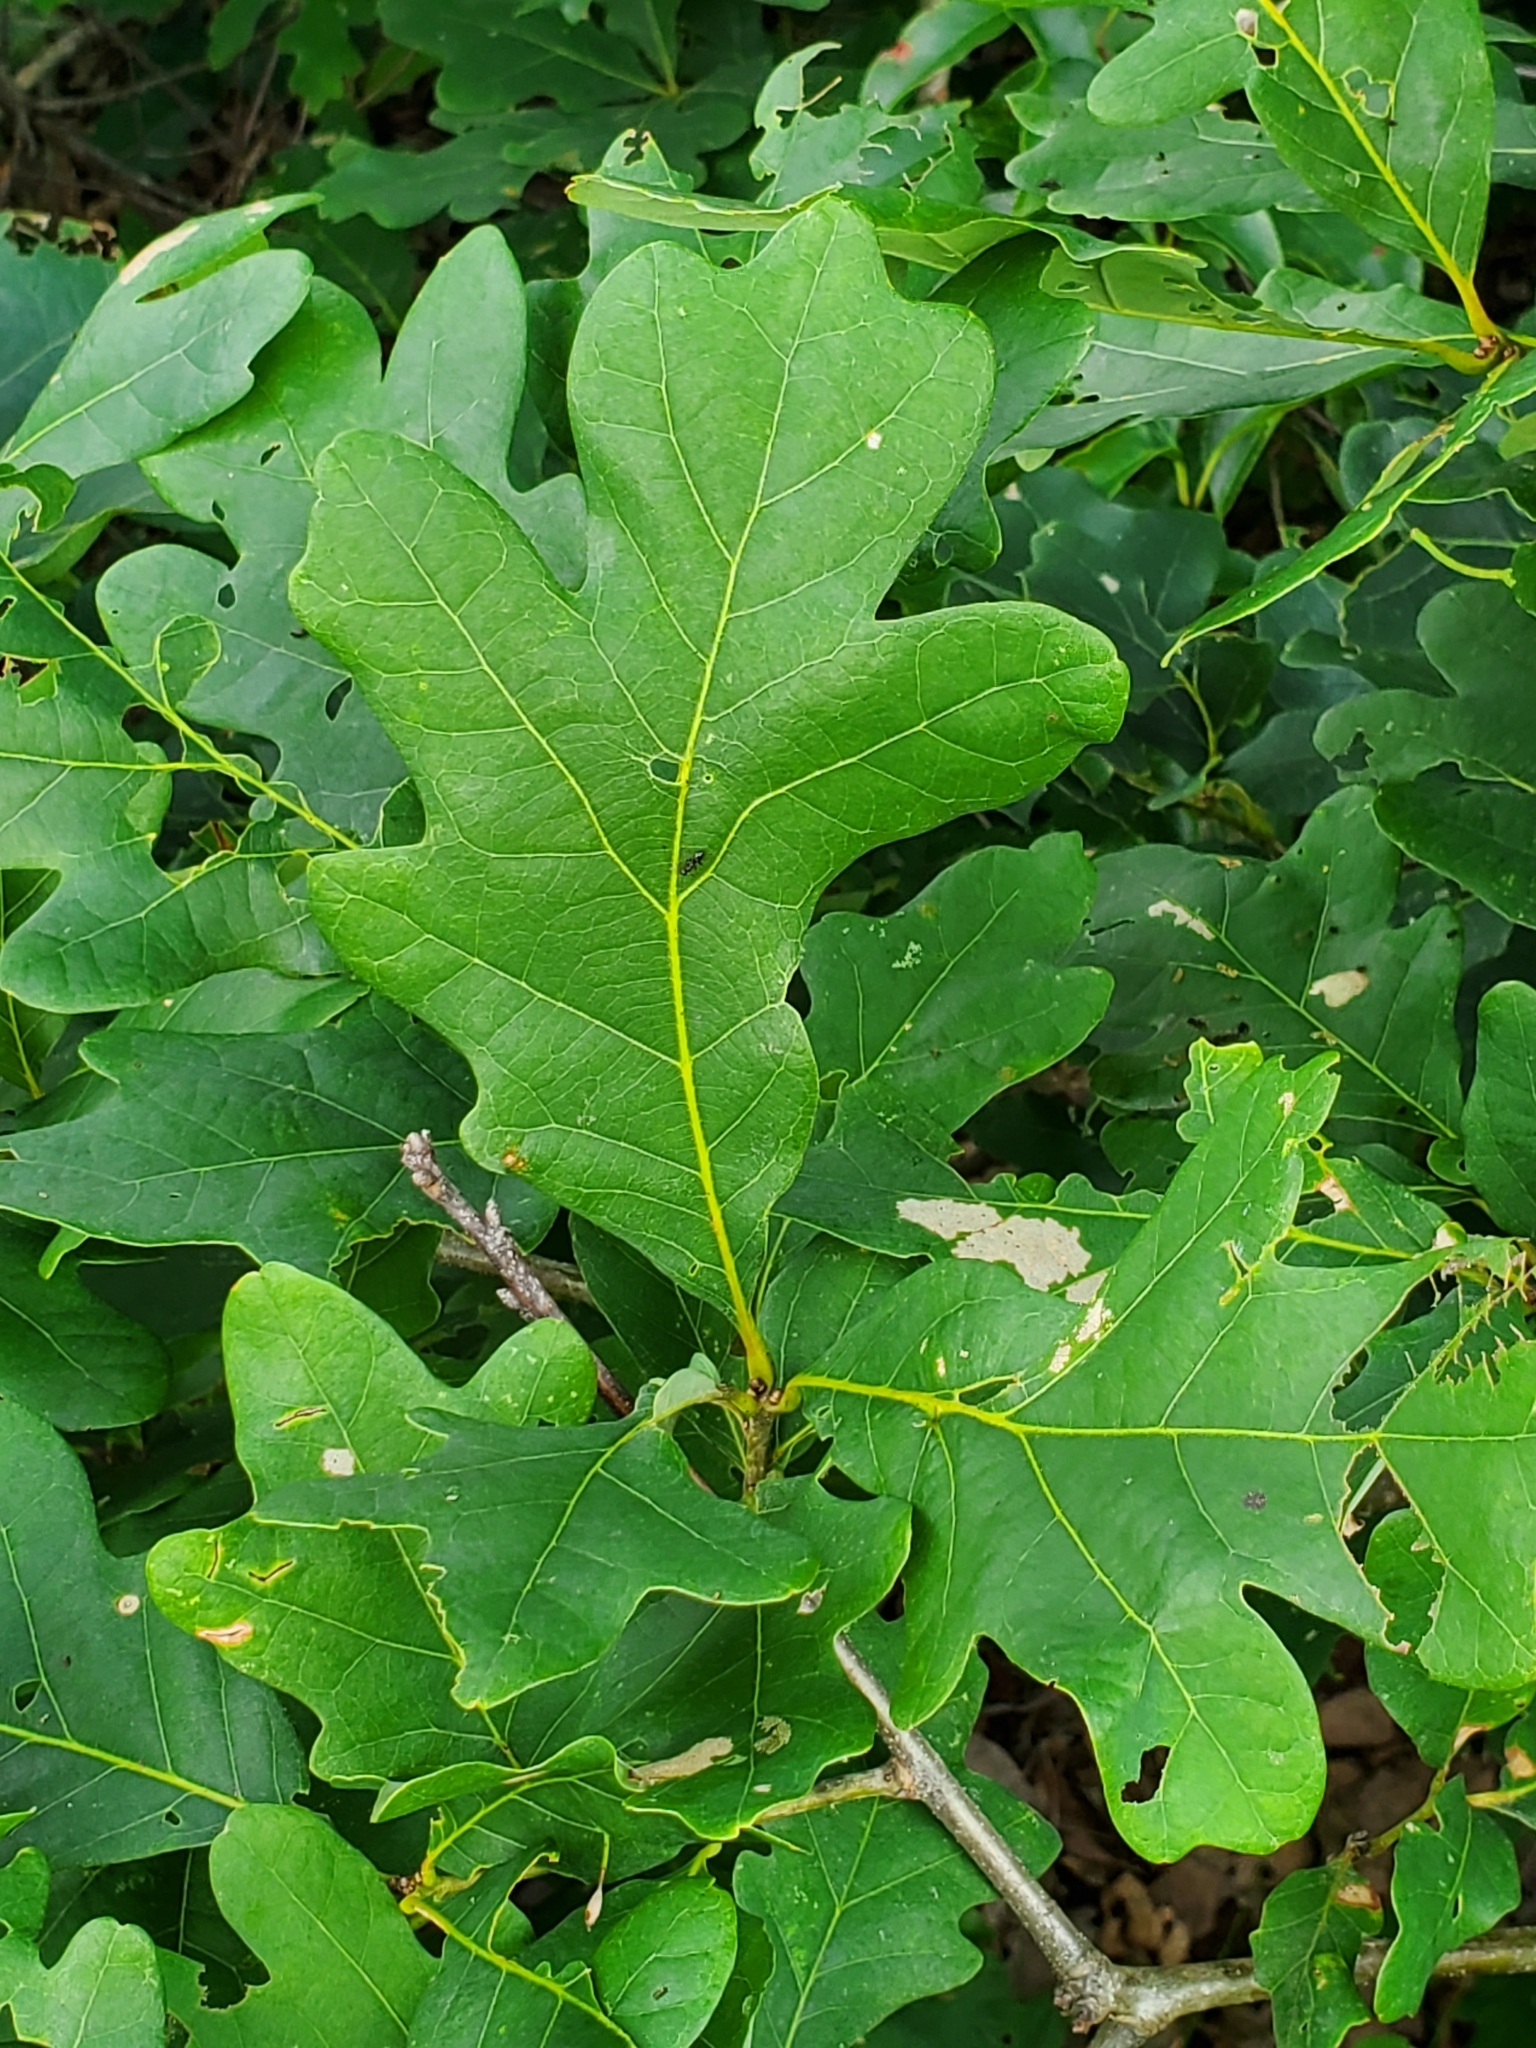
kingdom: Plantae
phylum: Tracheophyta
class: Magnoliopsida
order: Fagales
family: Fagaceae
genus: Quercus
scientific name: Quercus alba
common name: White oak
